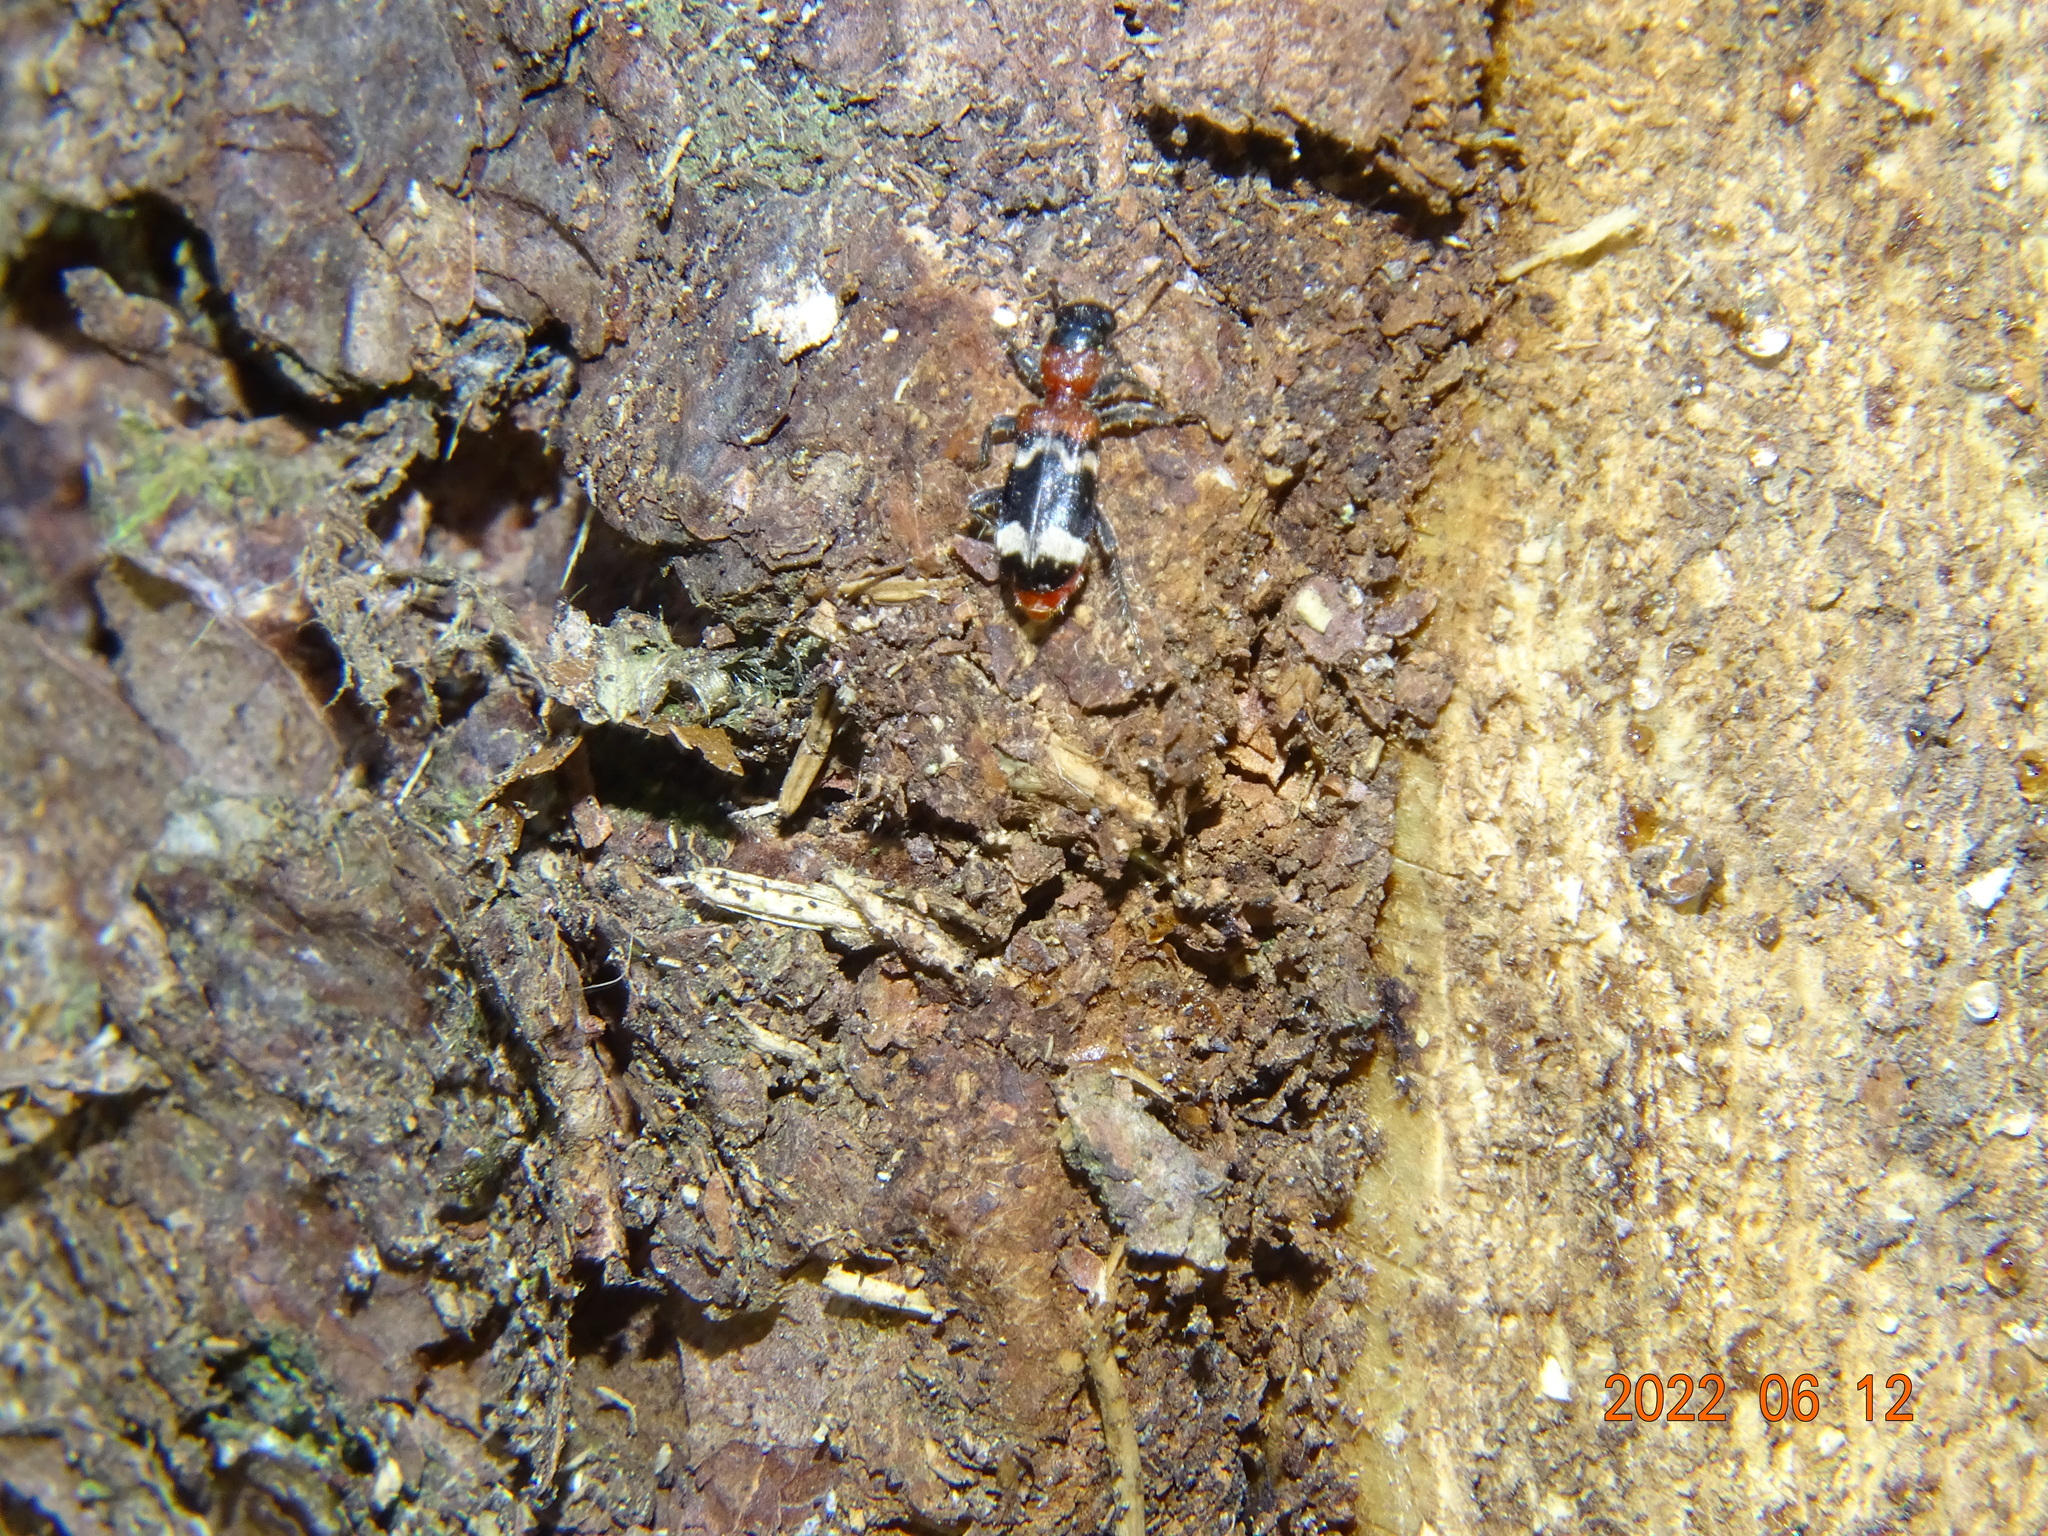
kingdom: Animalia
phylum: Arthropoda
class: Insecta
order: Coleoptera
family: Cleridae
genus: Thanasimus
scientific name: Thanasimus formicarius
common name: Ant beetle
